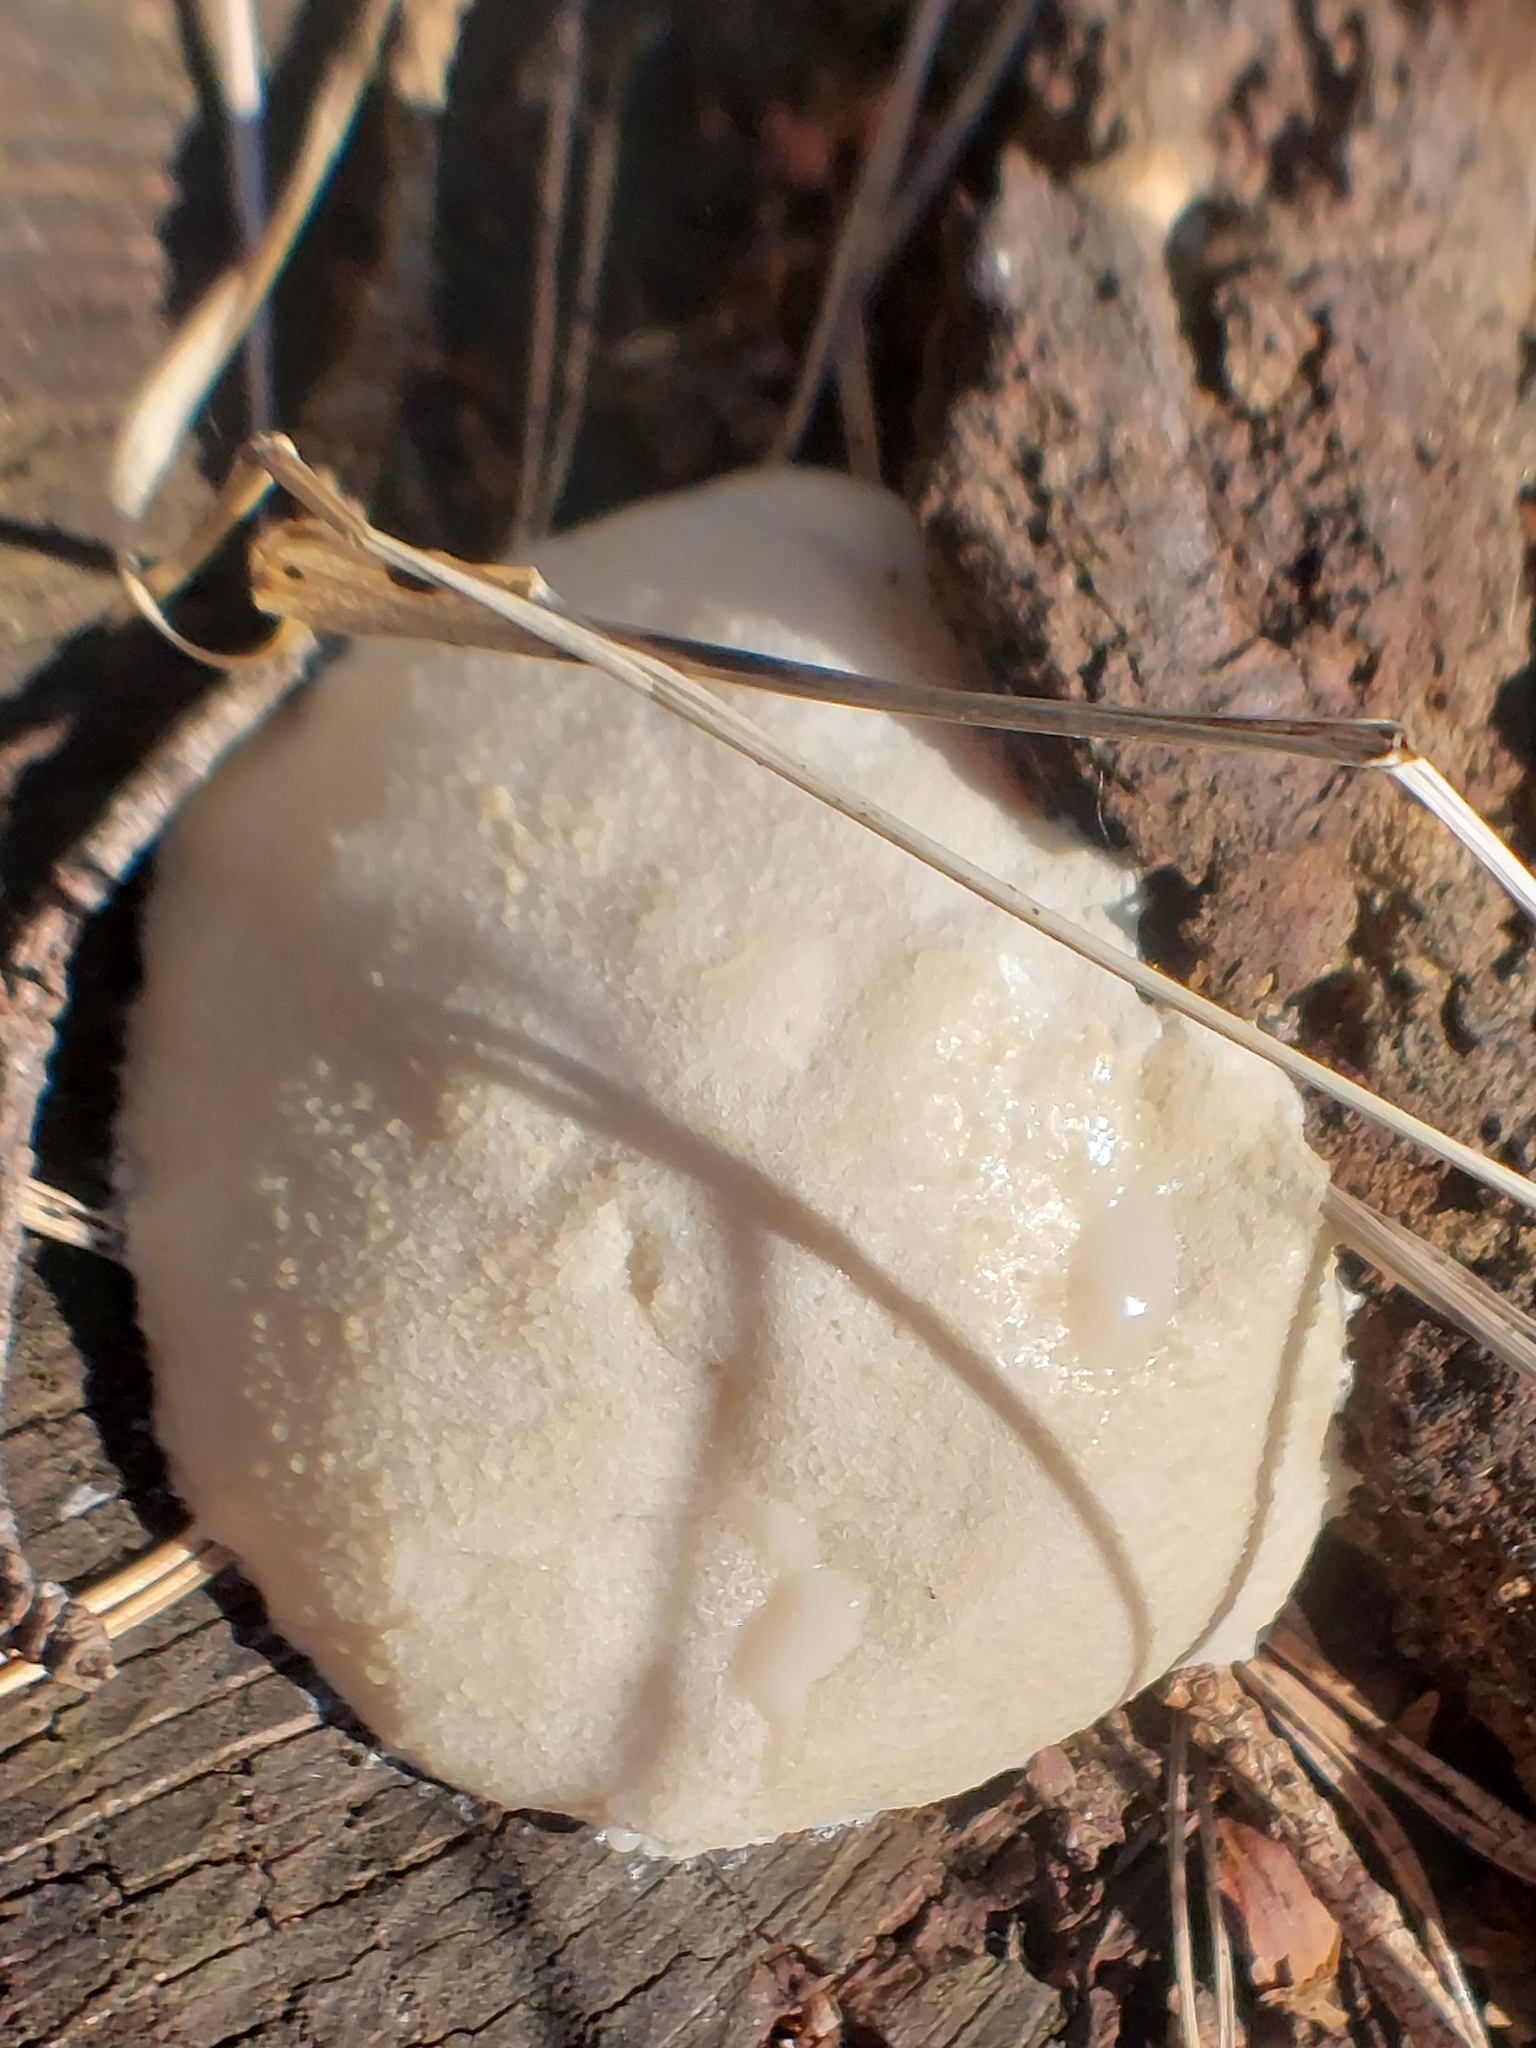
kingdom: Protozoa
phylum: Mycetozoa
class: Myxomycetes
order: Cribrariales
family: Tubiferaceae
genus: Reticularia
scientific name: Reticularia lycoperdon
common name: False puffball
